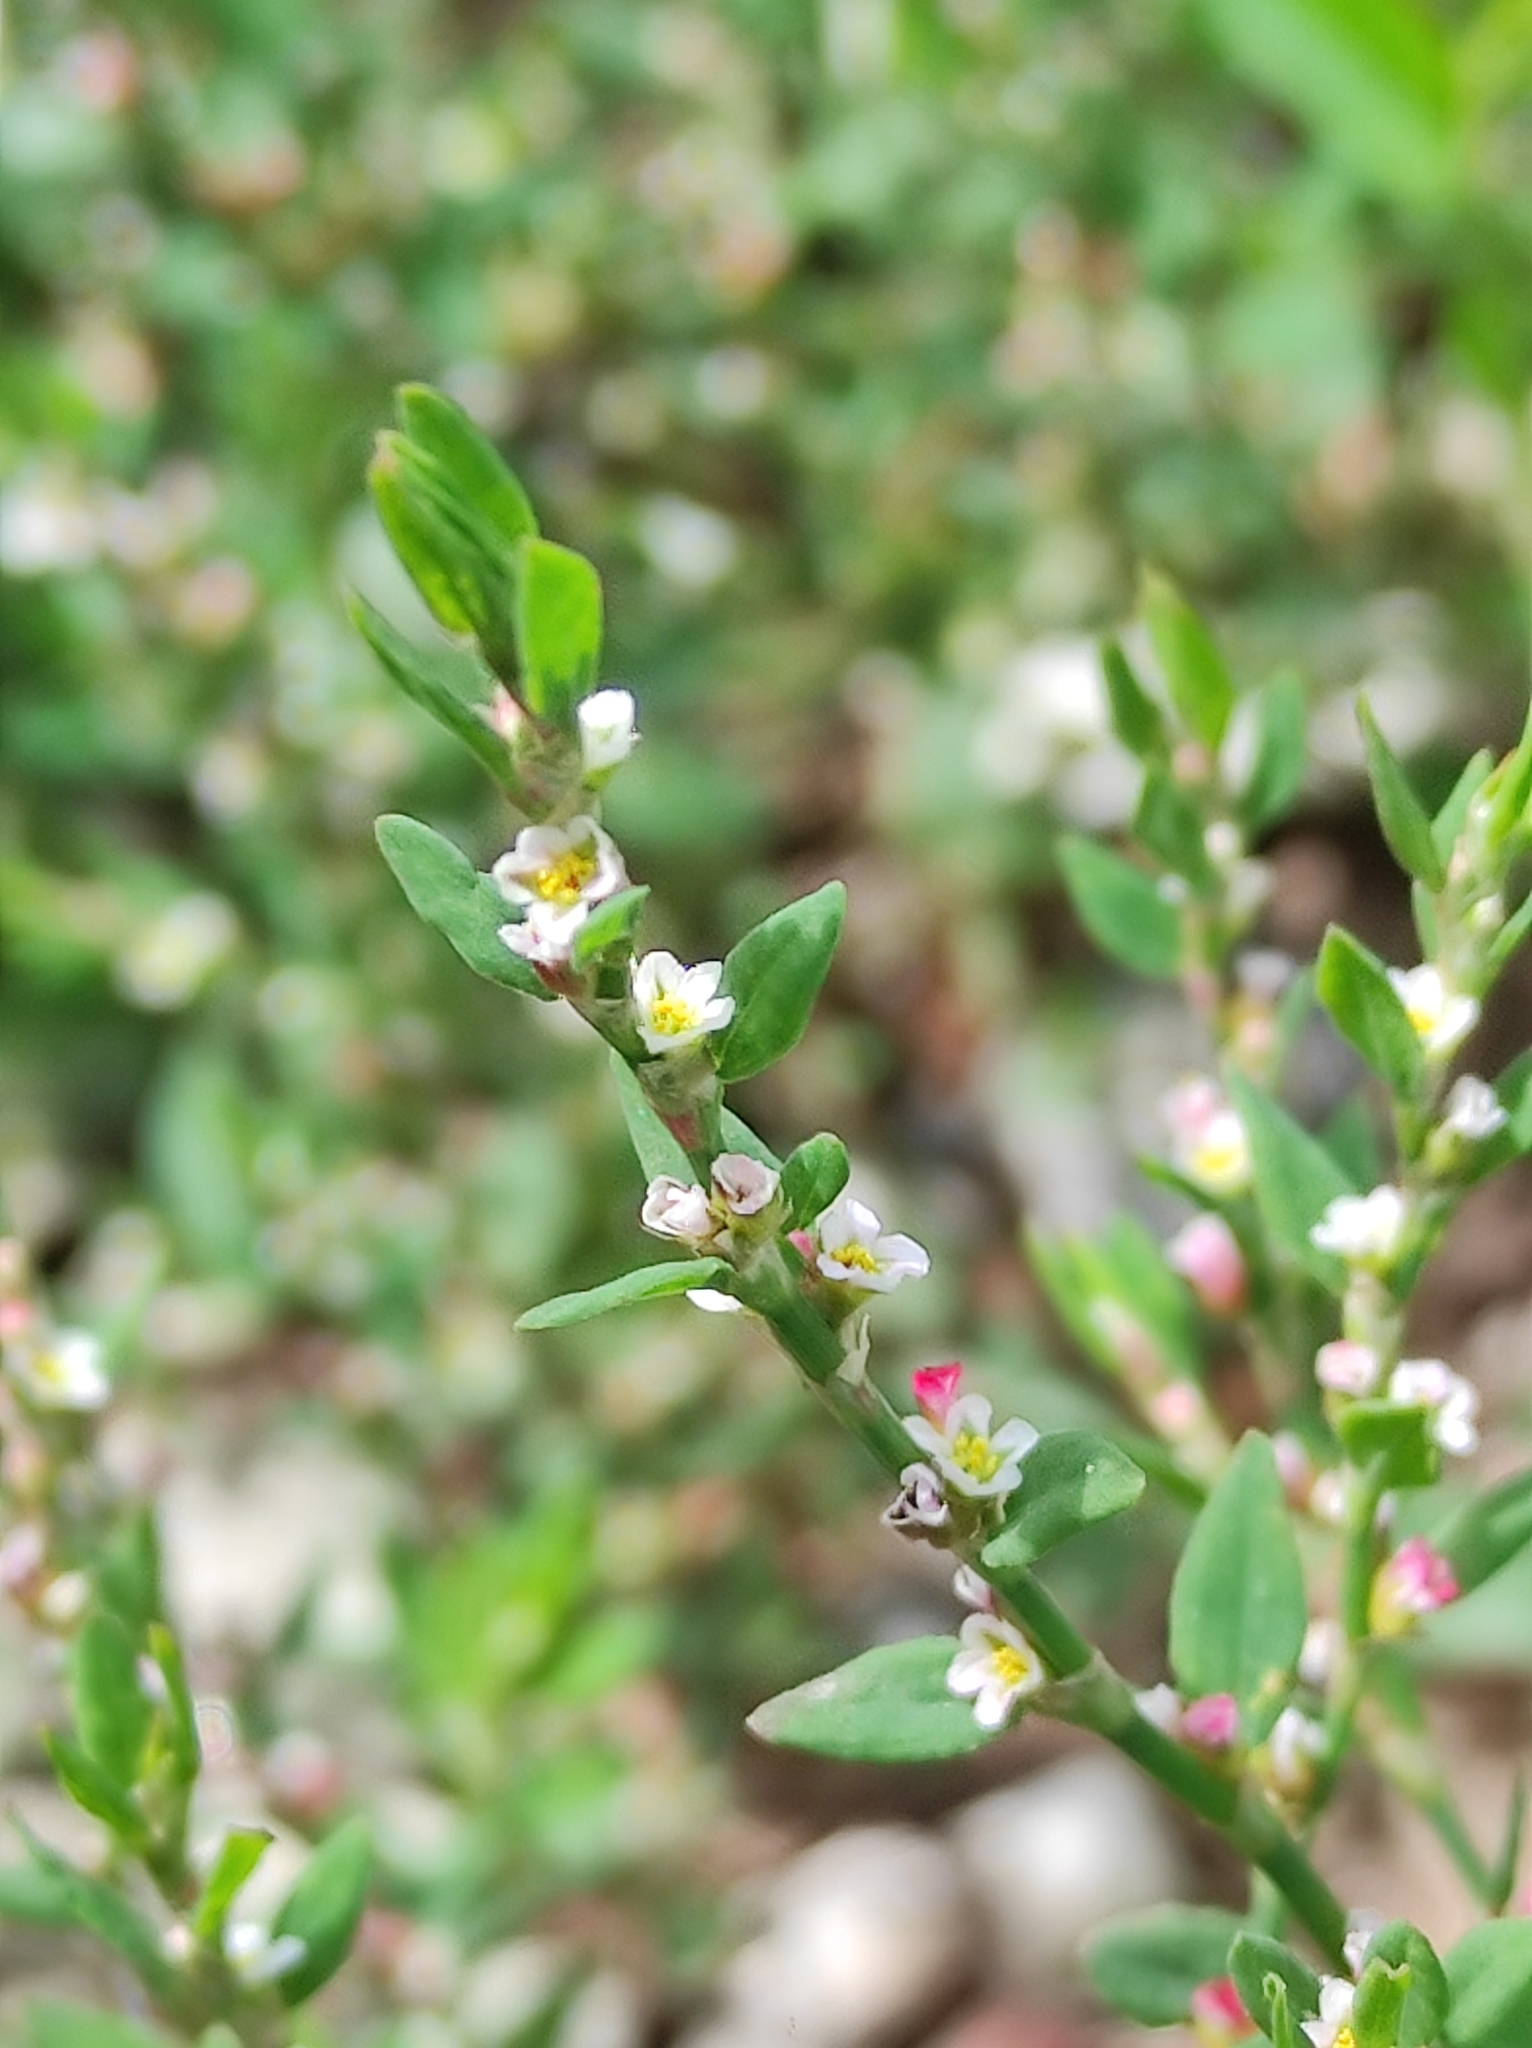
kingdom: Plantae
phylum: Tracheophyta
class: Magnoliopsida
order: Caryophyllales
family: Polygonaceae
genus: Polygonum
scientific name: Polygonum aviculare
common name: Prostrate knotweed
